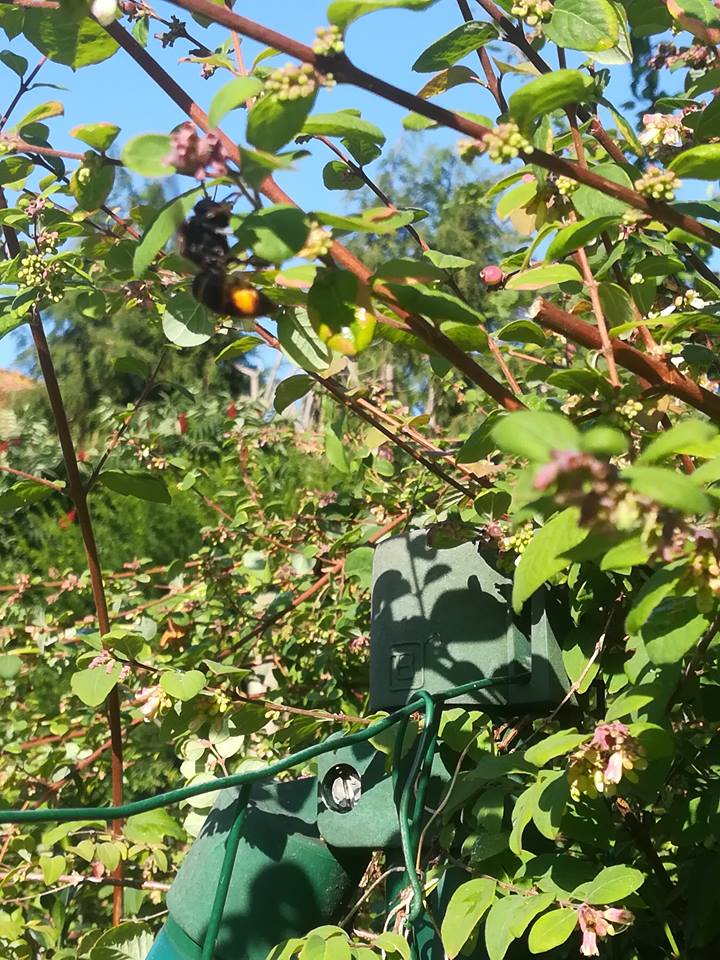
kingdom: Animalia
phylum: Arthropoda
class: Insecta
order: Hymenoptera
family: Vespidae
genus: Vespa
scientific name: Vespa velutina
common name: Asian hornet
